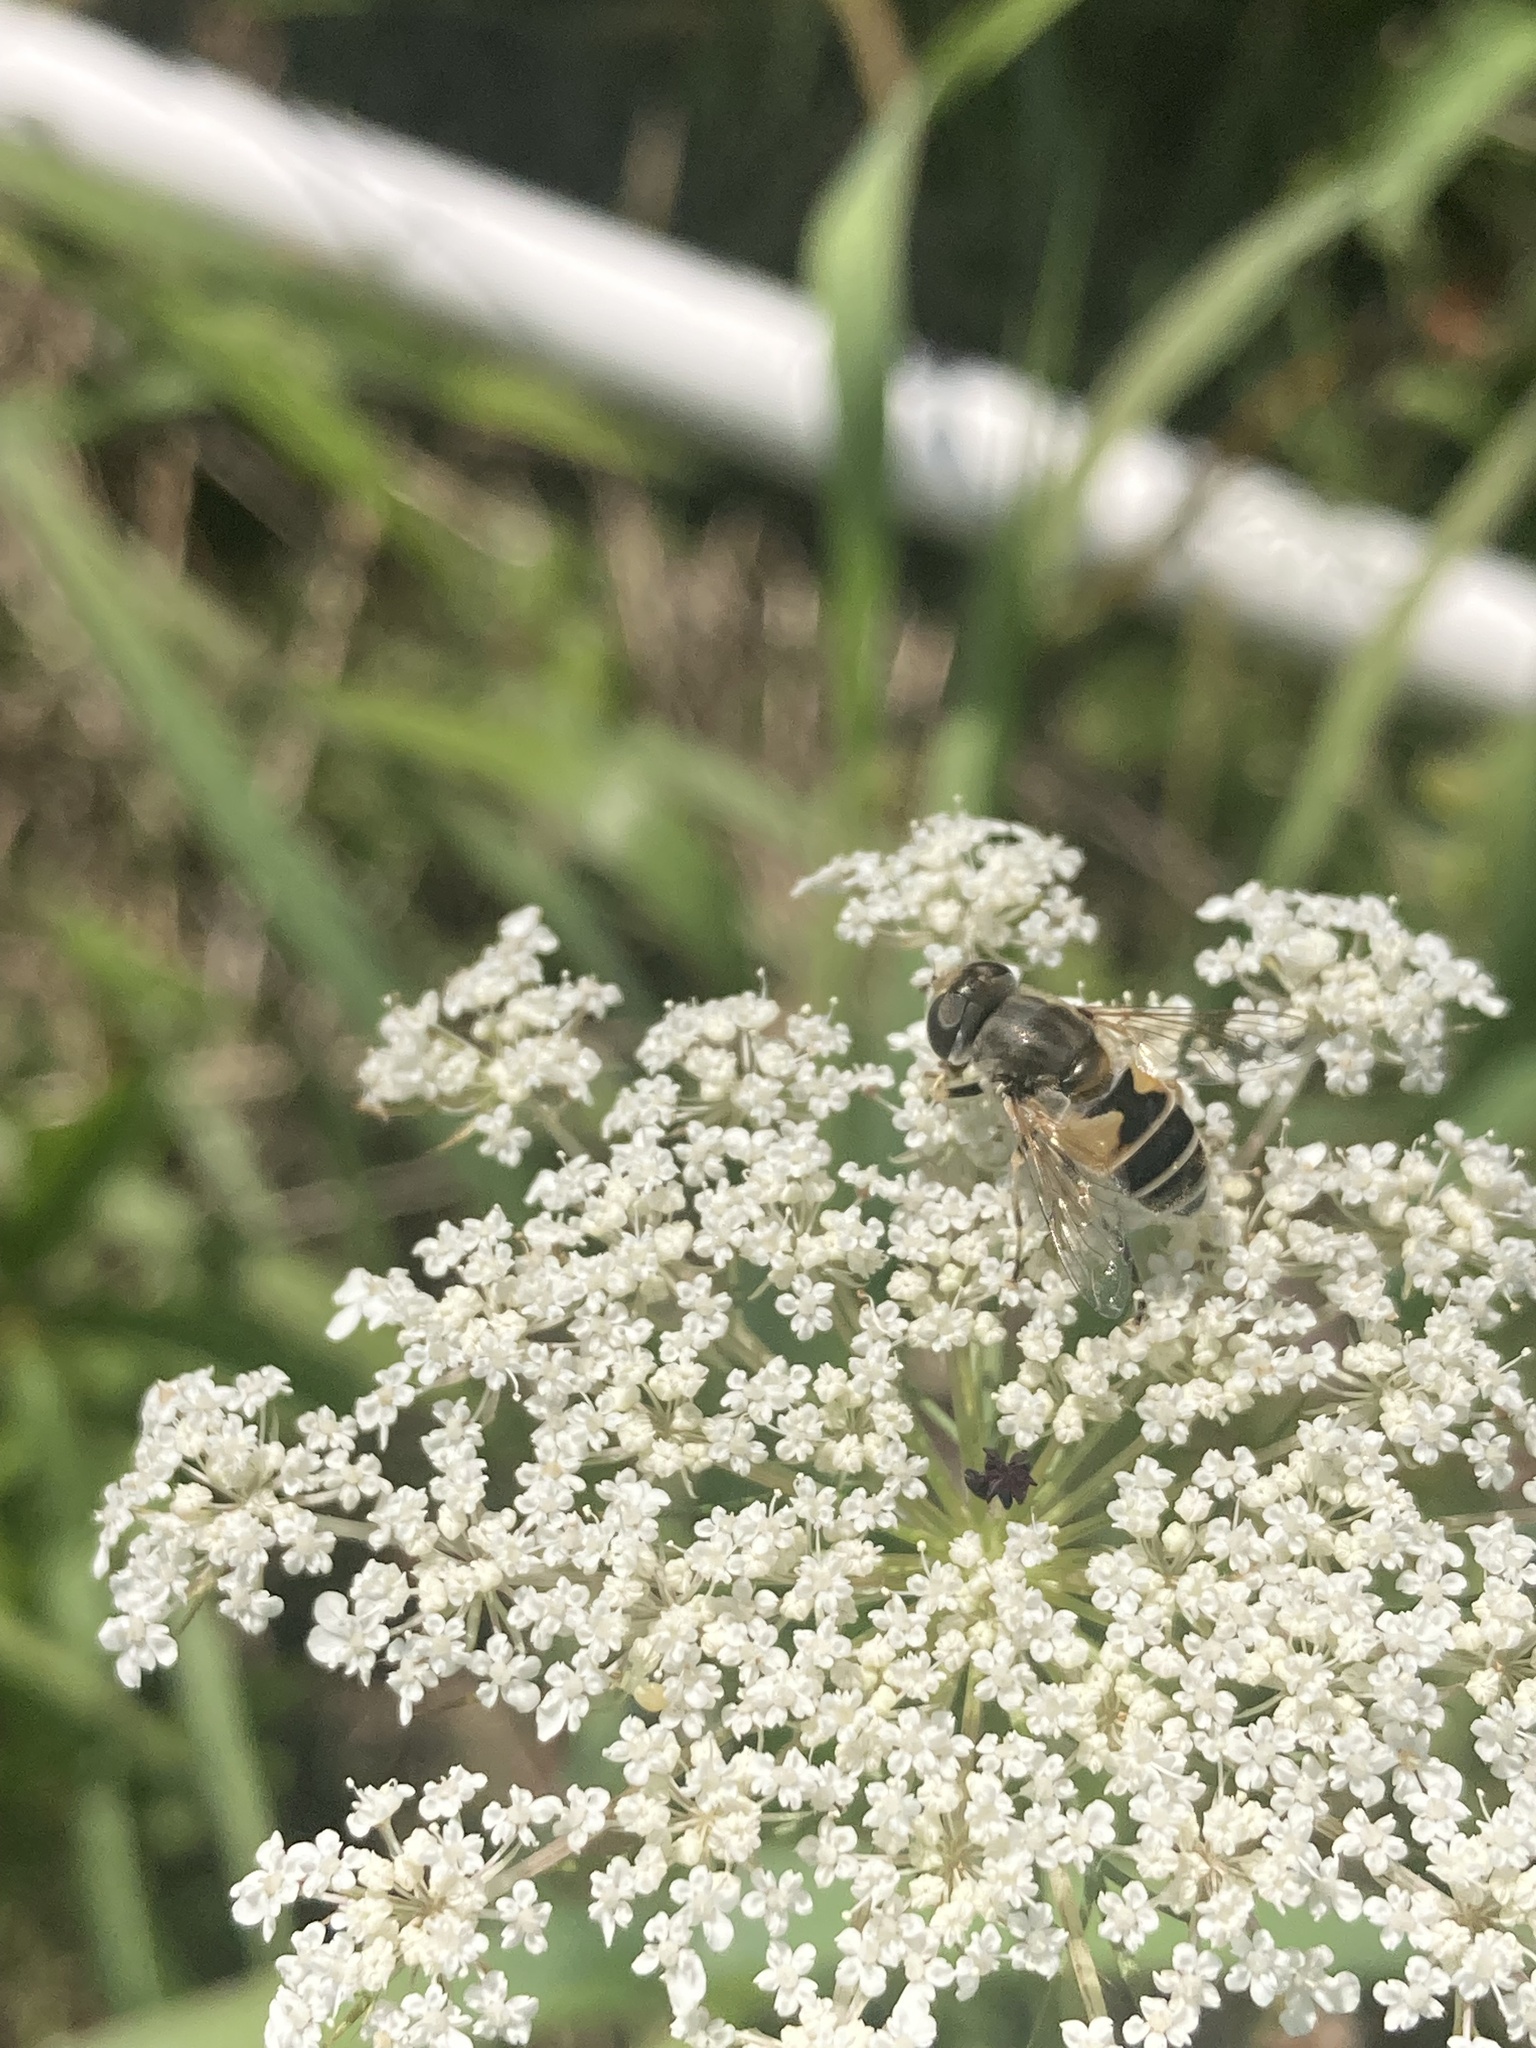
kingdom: Animalia
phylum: Arthropoda
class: Insecta
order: Diptera
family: Syrphidae
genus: Eristalis
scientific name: Eristalis arbustorum
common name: Hover fly
